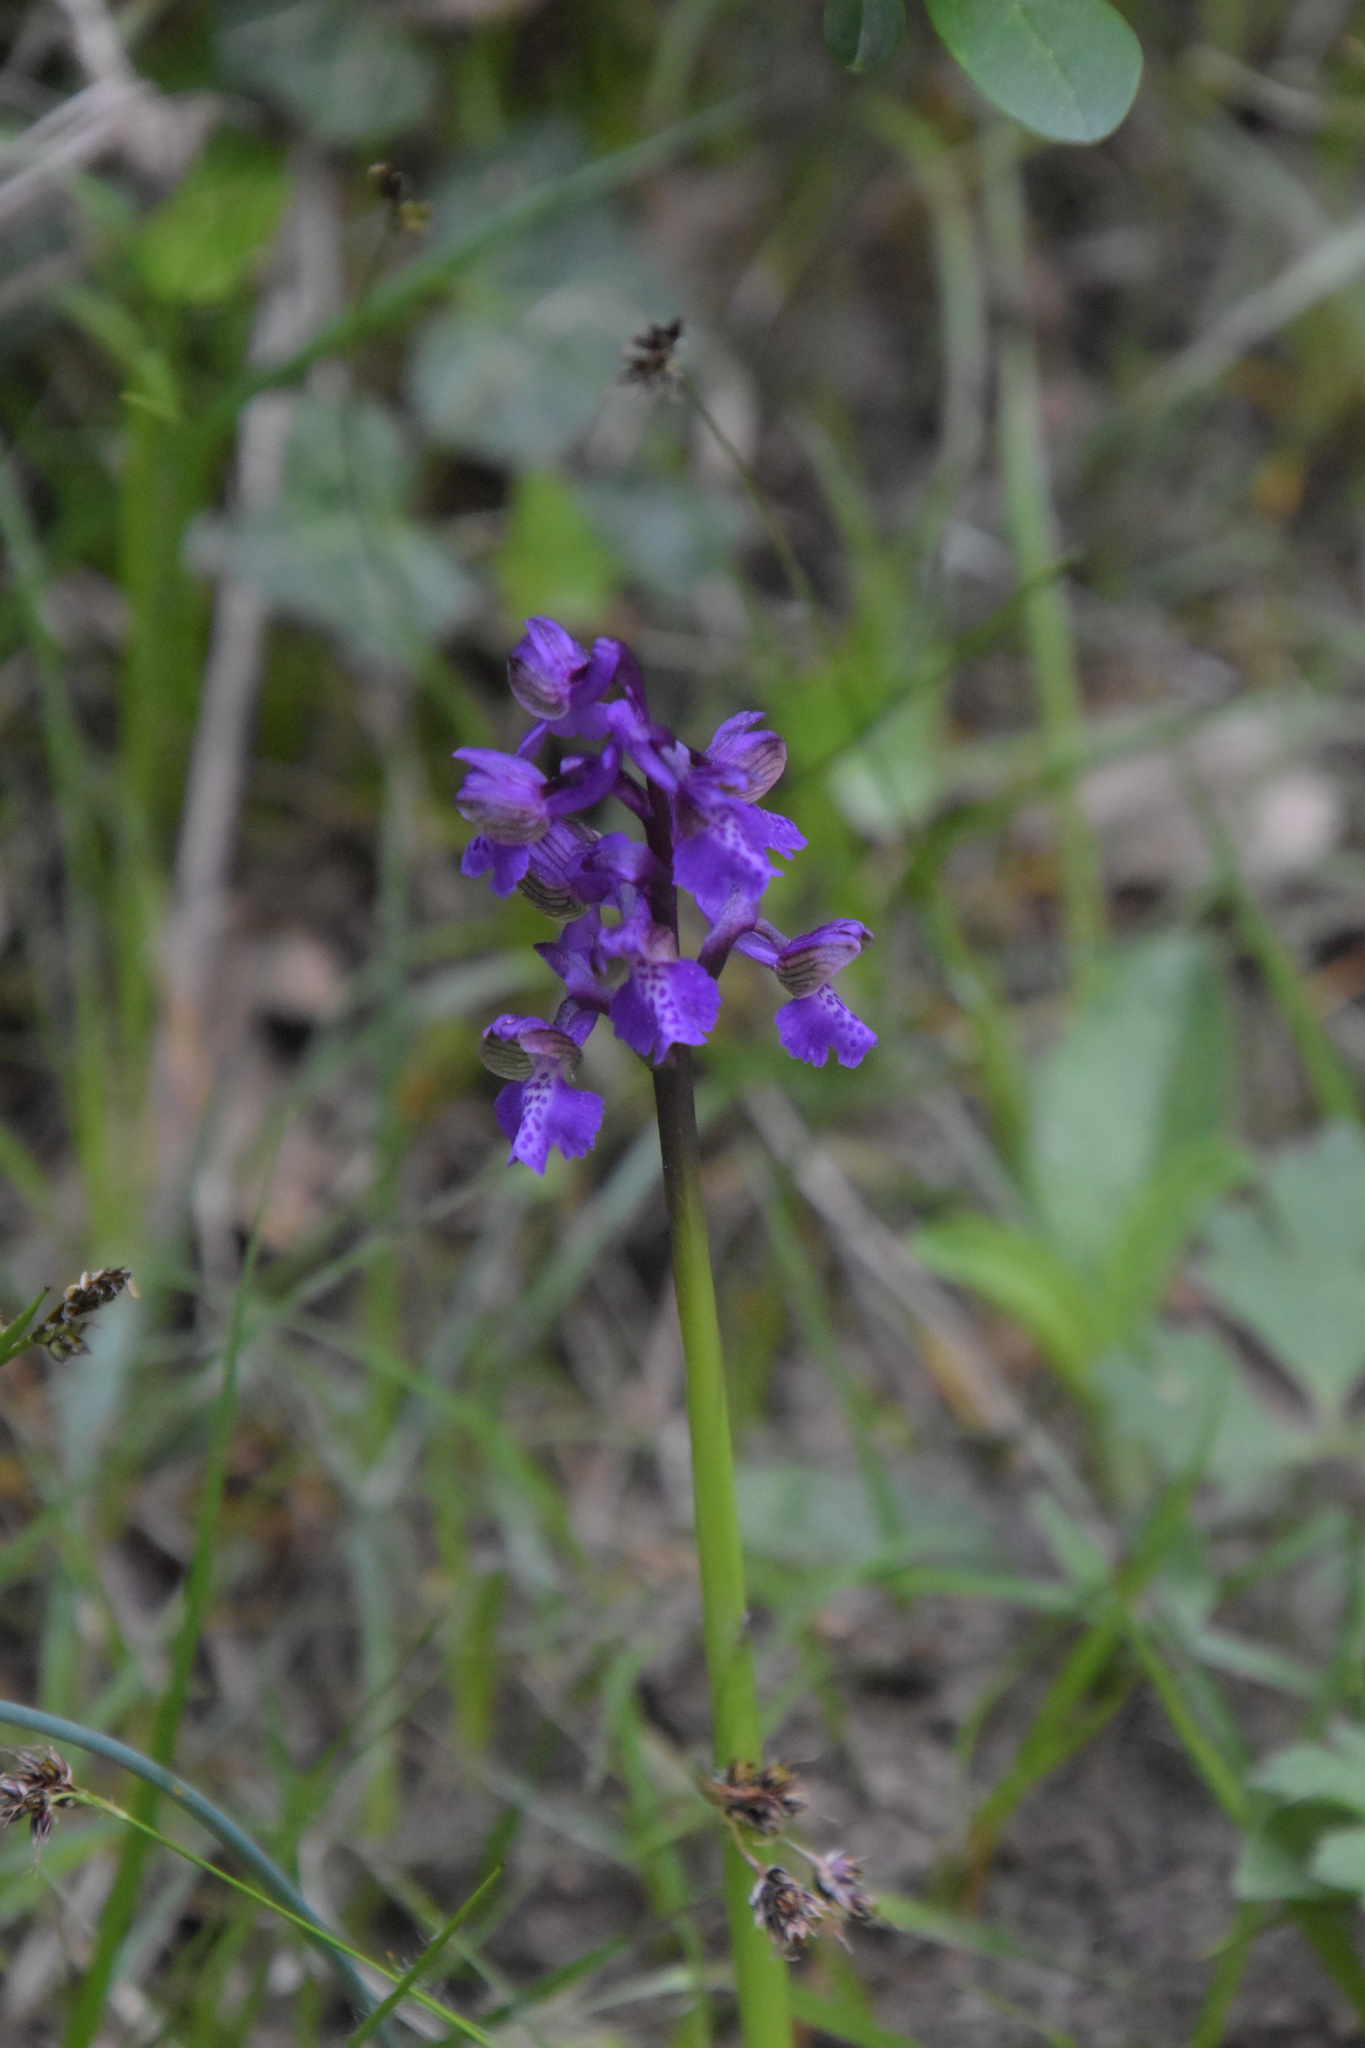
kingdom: Plantae
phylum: Tracheophyta
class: Liliopsida
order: Asparagales
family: Orchidaceae
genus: Anacamptis
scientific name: Anacamptis morio
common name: Green-winged orchid
